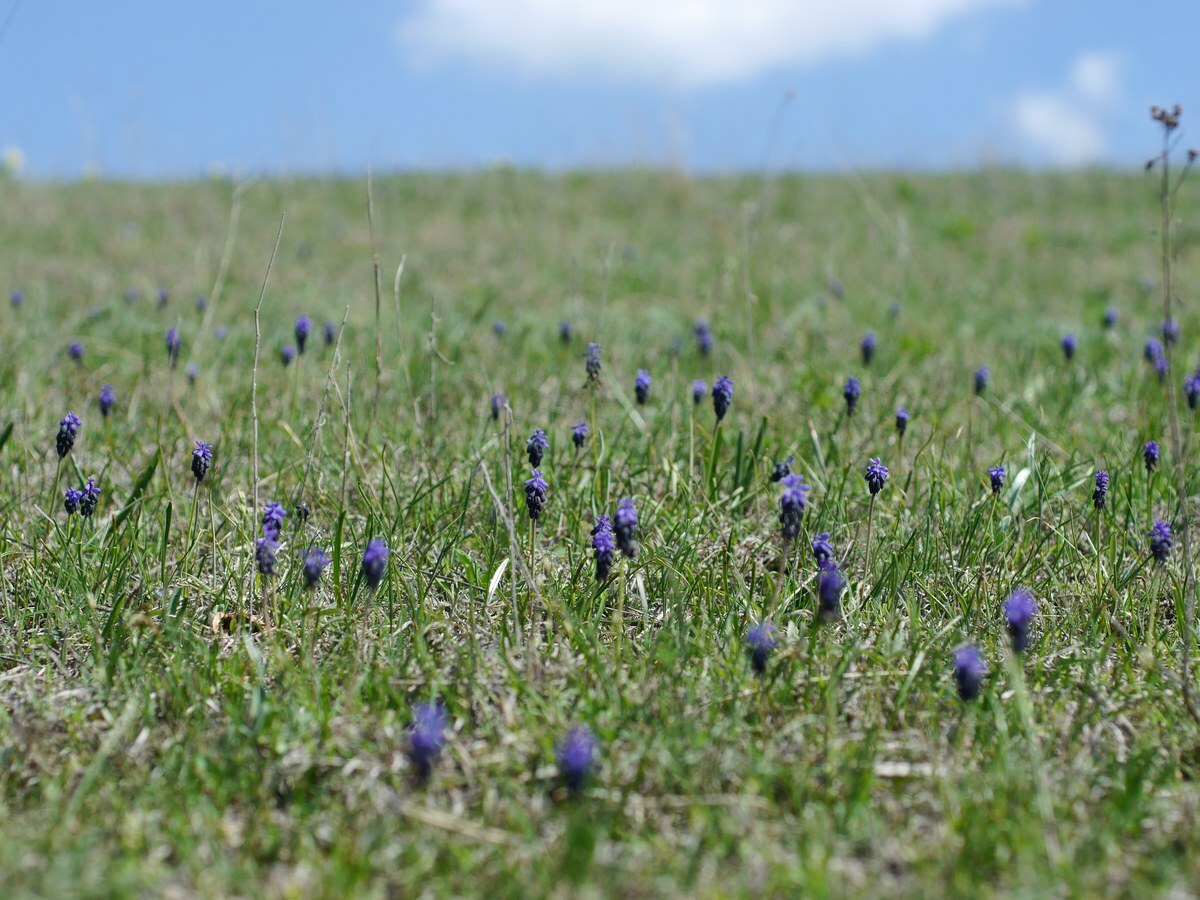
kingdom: Plantae
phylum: Tracheophyta
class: Liliopsida
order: Asparagales
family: Asparagaceae
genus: Muscari
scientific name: Muscari neglectum
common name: Grape-hyacinth
